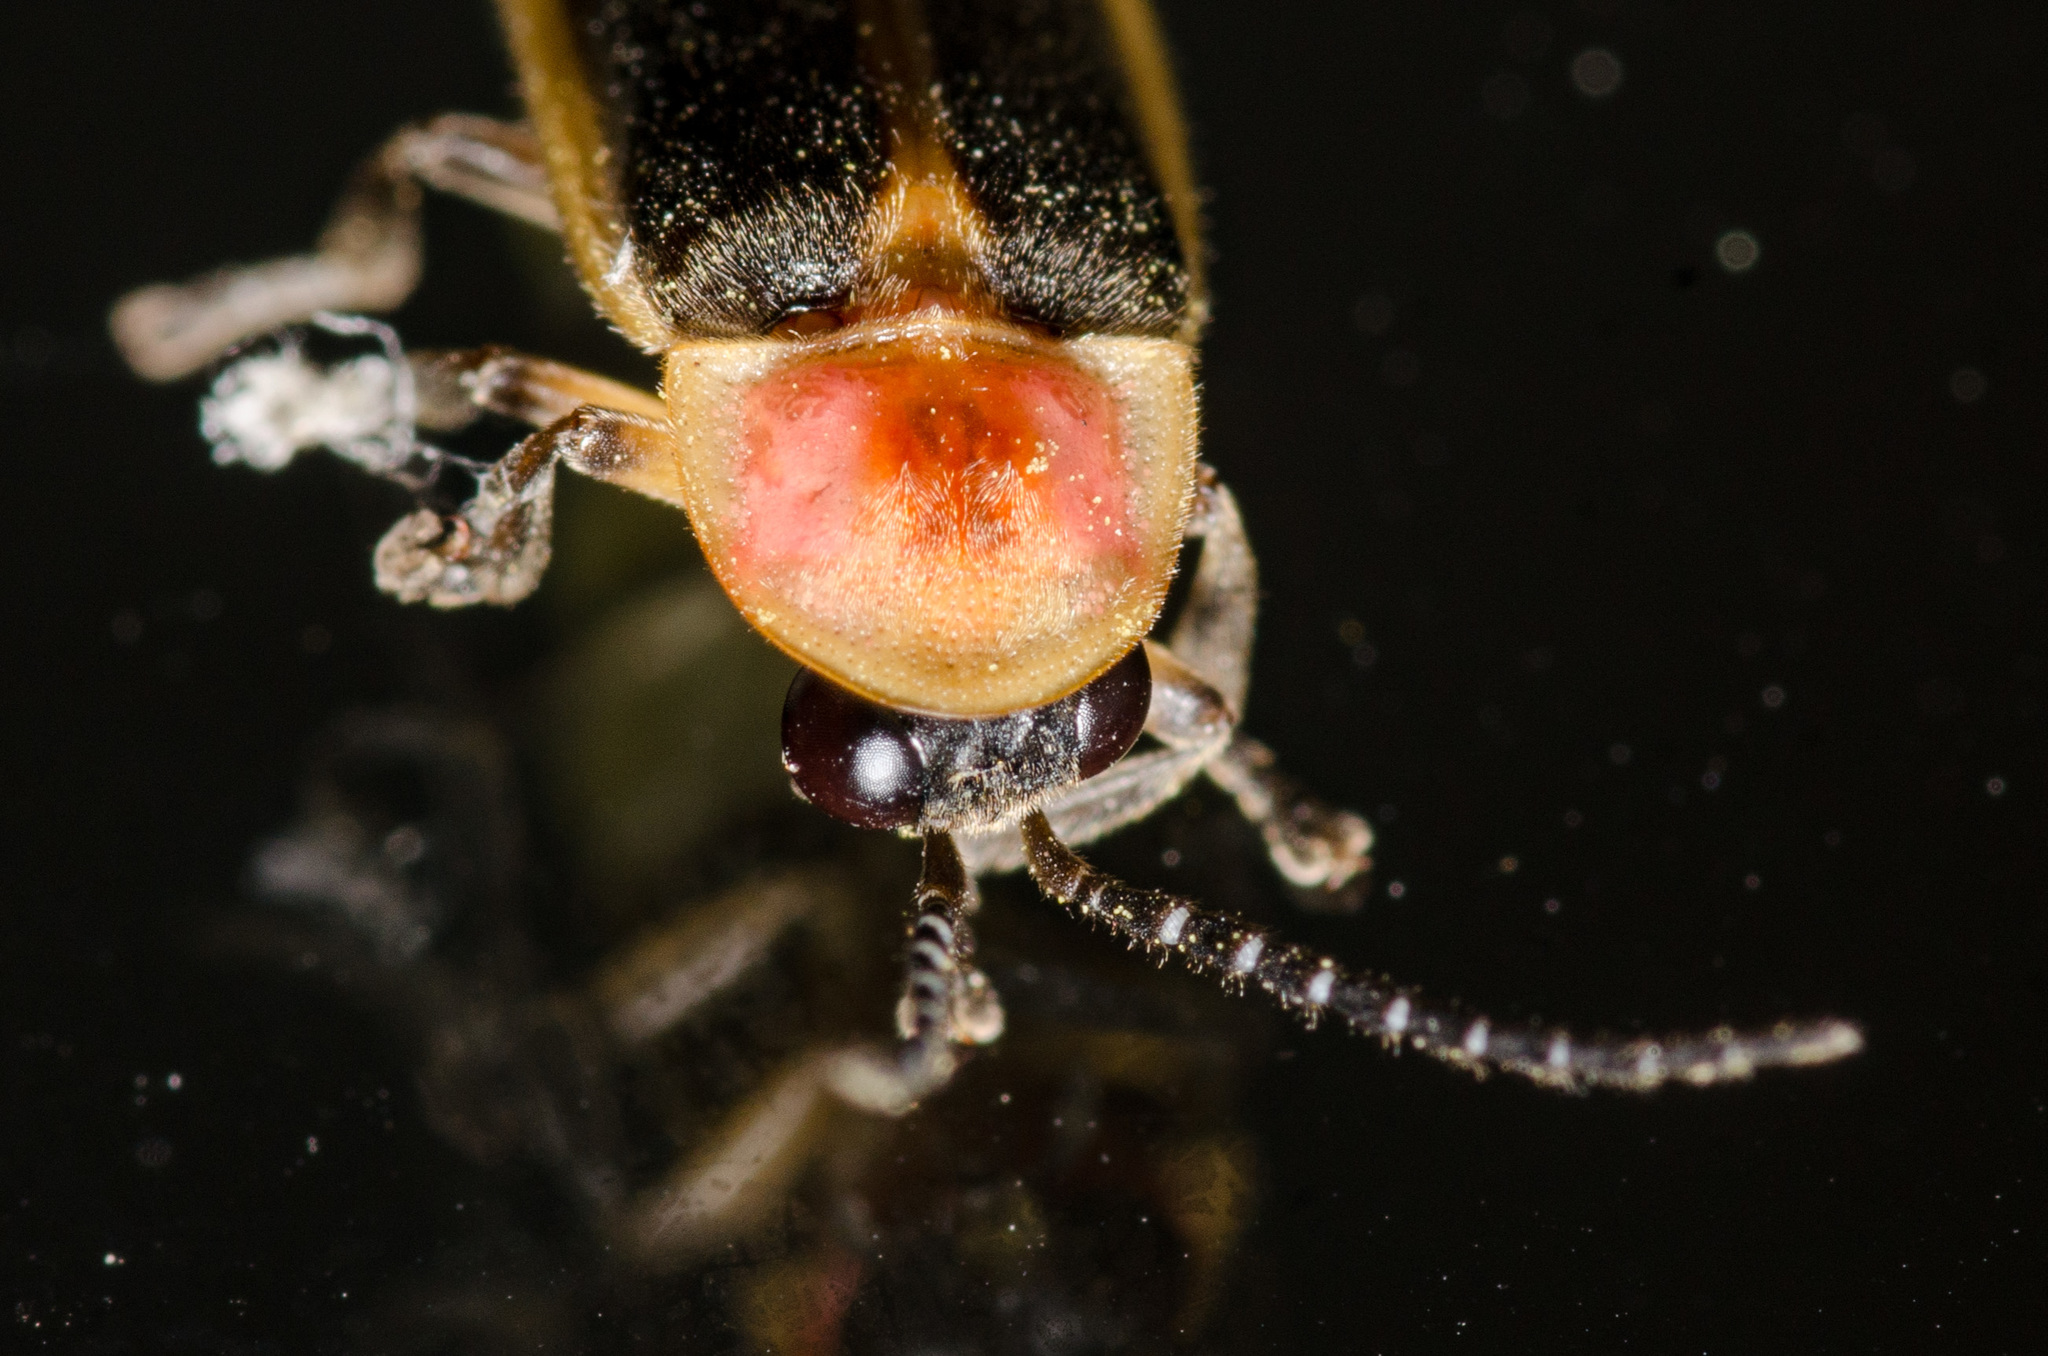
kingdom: Animalia
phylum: Arthropoda
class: Insecta
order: Coleoptera
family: Lampyridae
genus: Photinus
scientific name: Photinus pyralis
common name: Big dipper firefly
